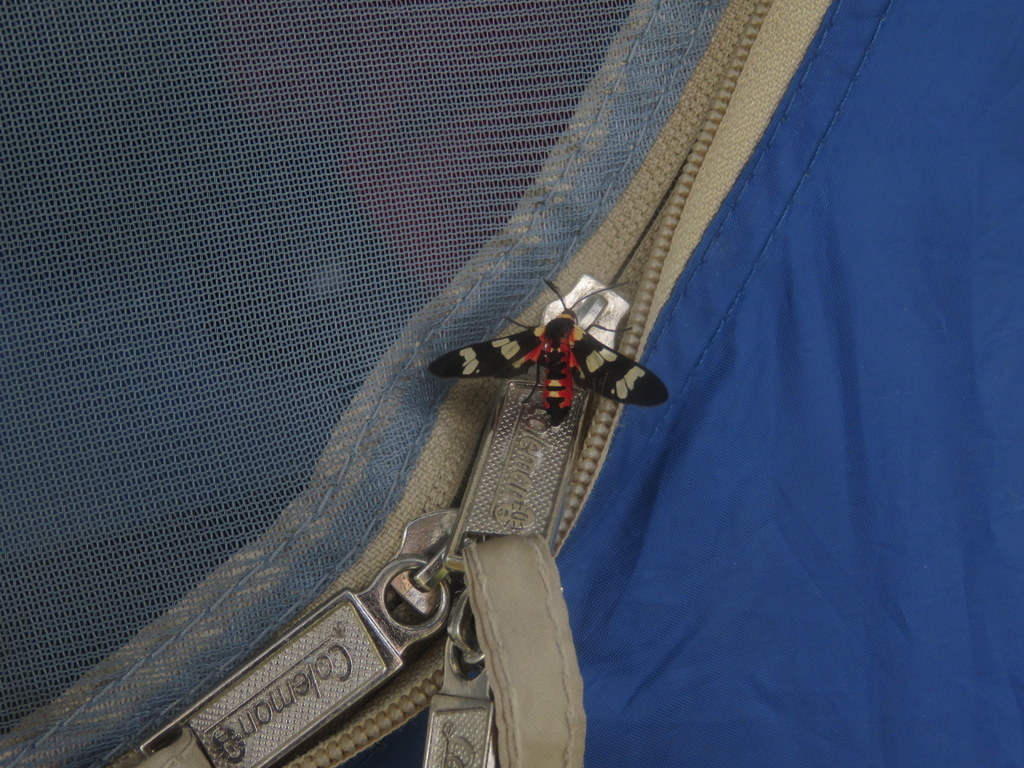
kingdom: Animalia
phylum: Arthropoda
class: Insecta
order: Lepidoptera
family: Erebidae
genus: Eurata
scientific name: Eurata patagiata
